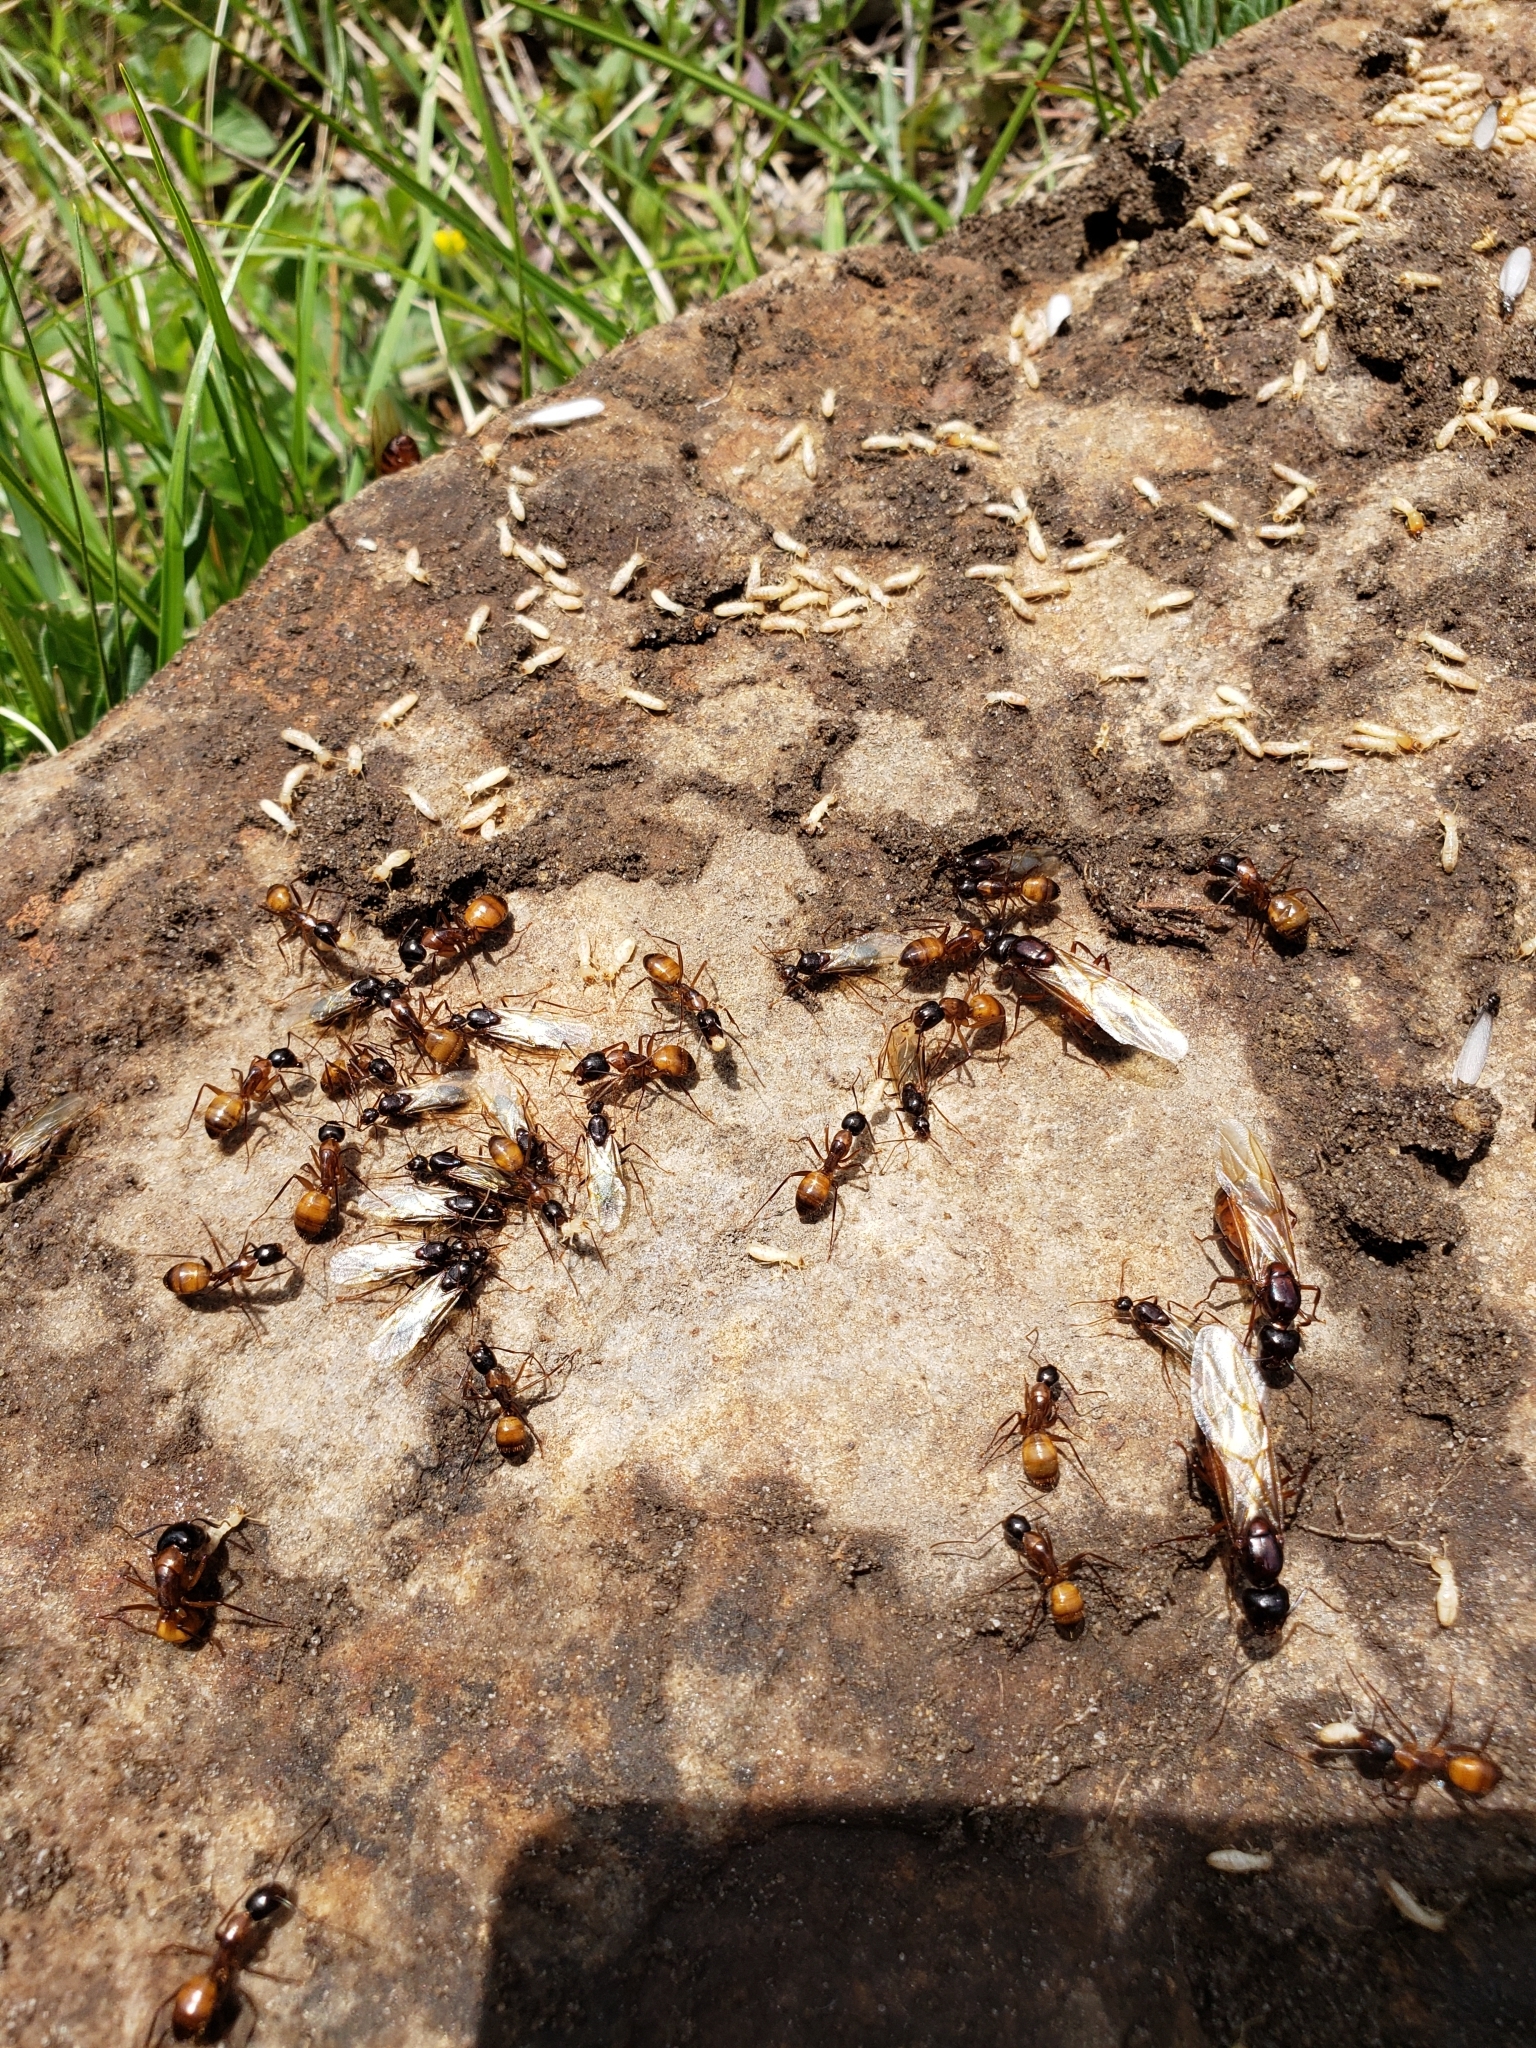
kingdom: Animalia
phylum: Arthropoda
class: Insecta
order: Hymenoptera
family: Formicidae
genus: Camponotus
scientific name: Camponotus americanus
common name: American carpenter ant
